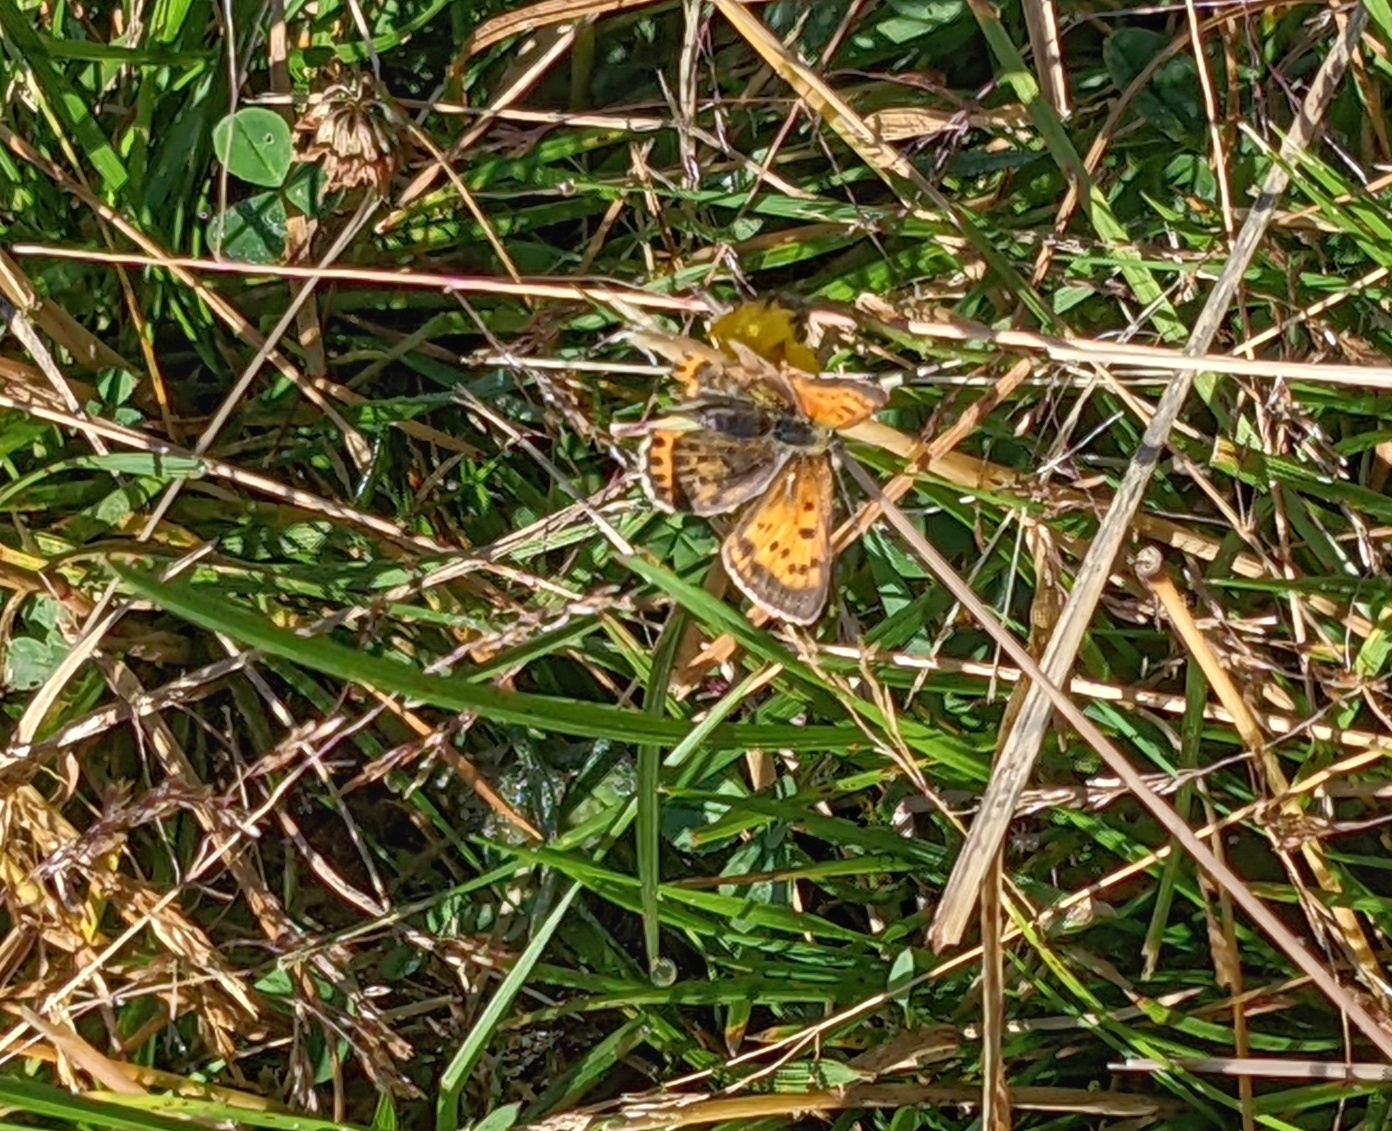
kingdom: Animalia
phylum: Arthropoda
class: Insecta
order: Lepidoptera
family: Lycaenidae
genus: Lycaena
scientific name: Lycaena virgaureae
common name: Scarce copper
